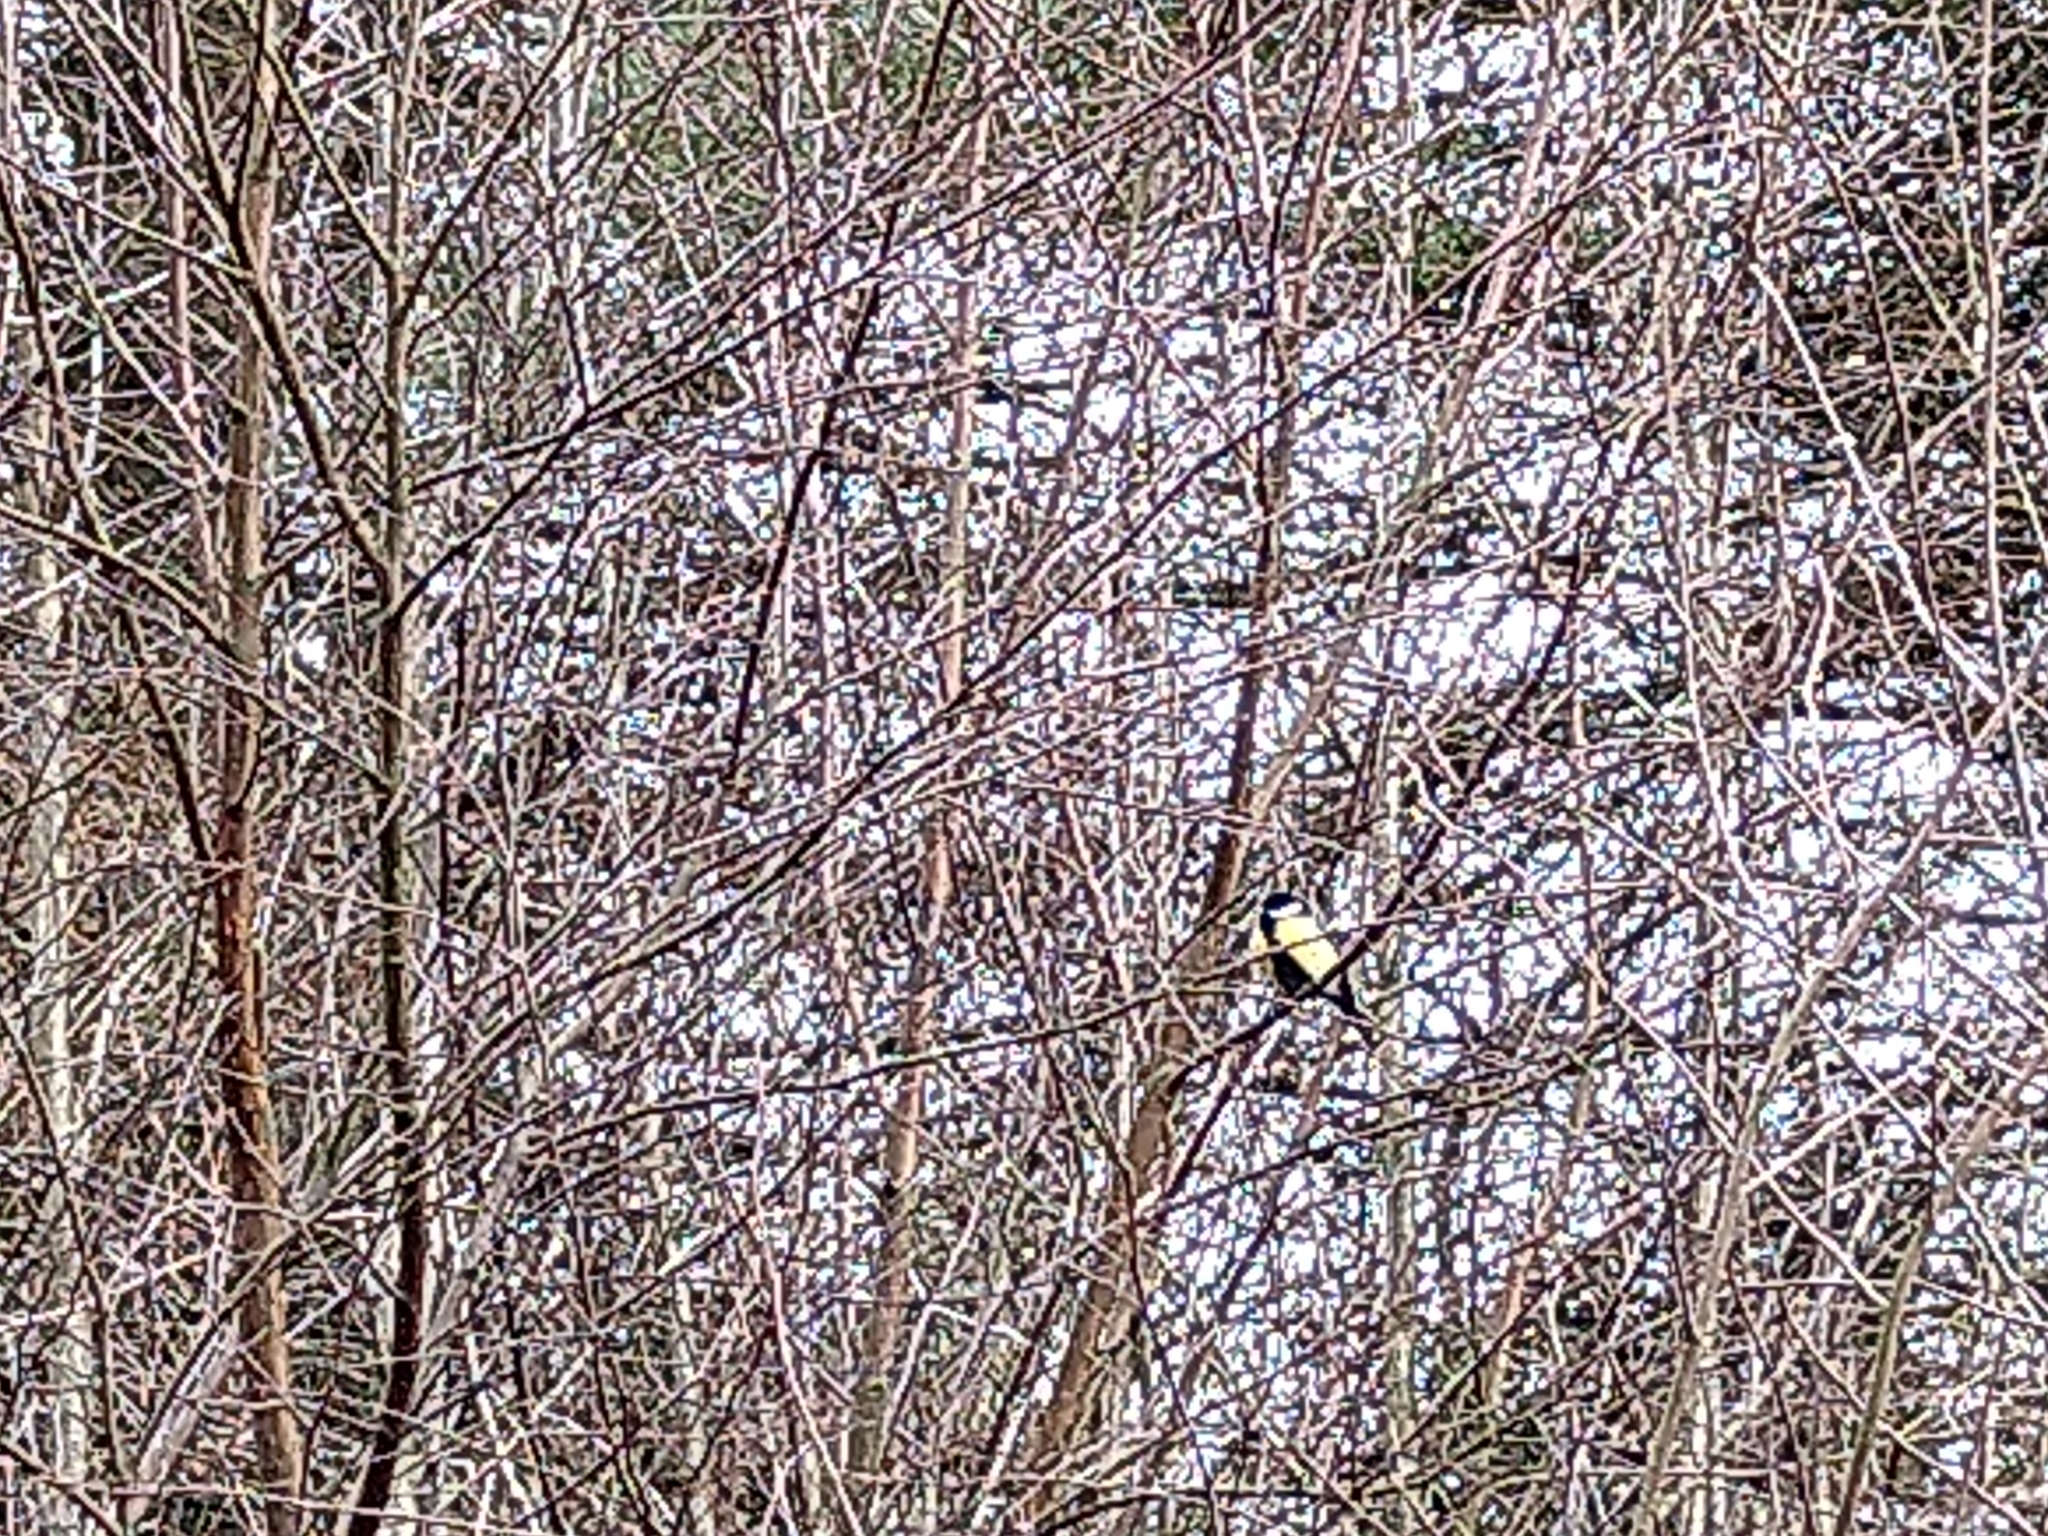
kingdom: Animalia
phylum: Chordata
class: Aves
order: Passeriformes
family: Paridae
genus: Parus
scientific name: Parus major
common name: Great tit
